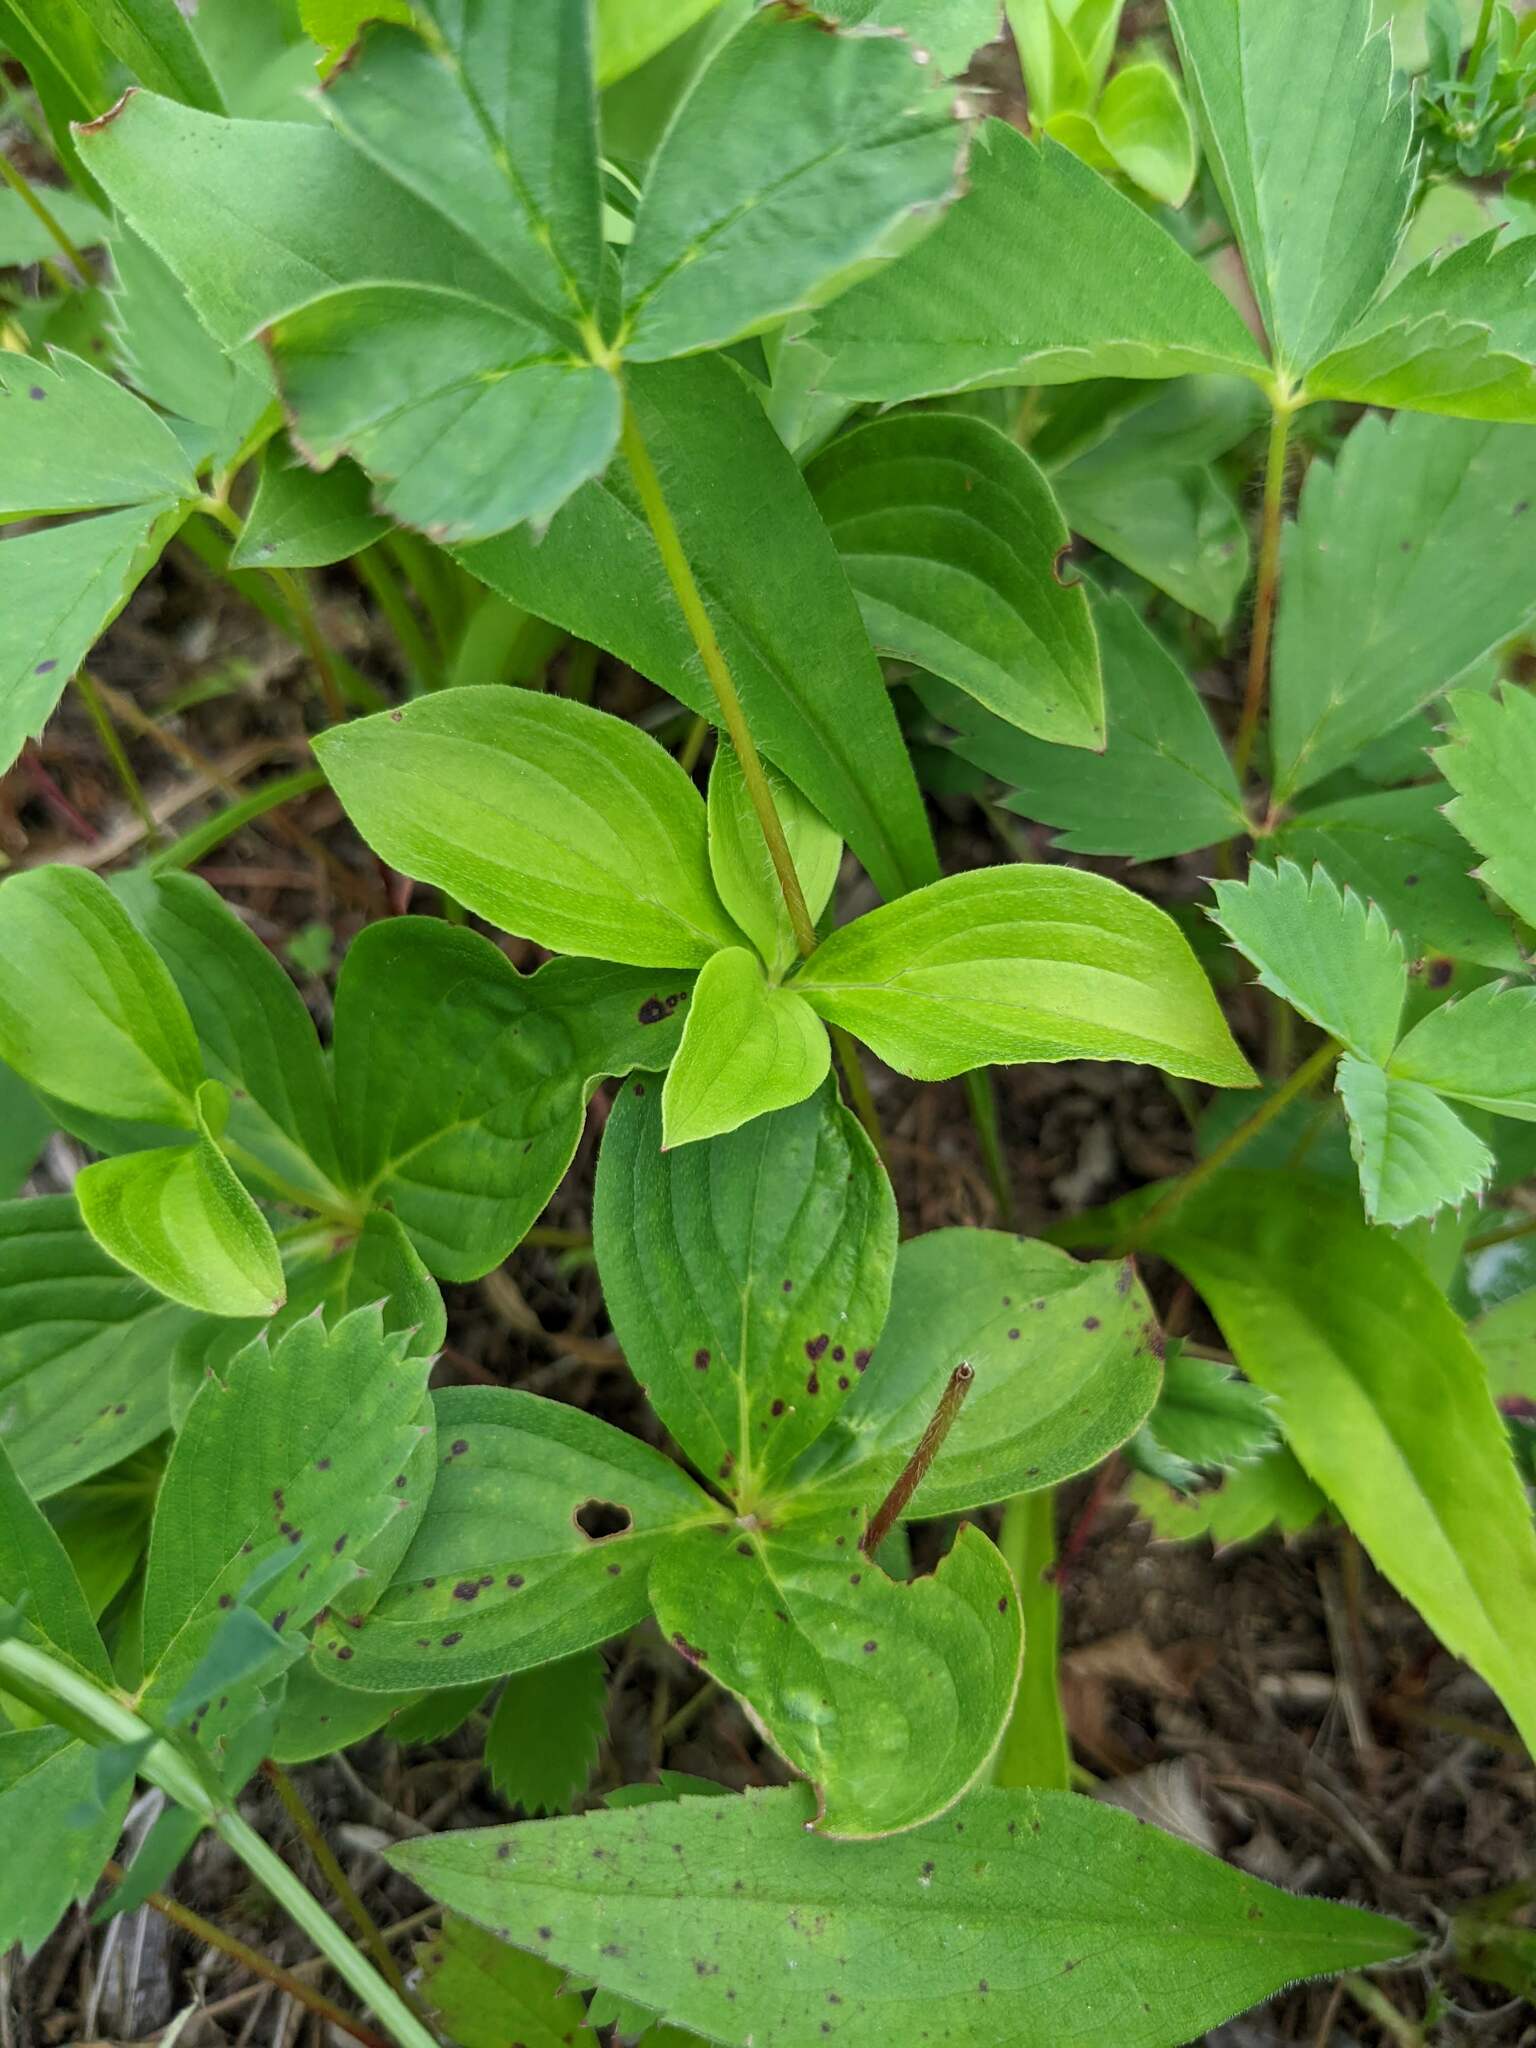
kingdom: Plantae
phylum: Tracheophyta
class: Magnoliopsida
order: Cornales
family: Cornaceae
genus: Cornus
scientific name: Cornus canadensis
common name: Creeping dogwood
